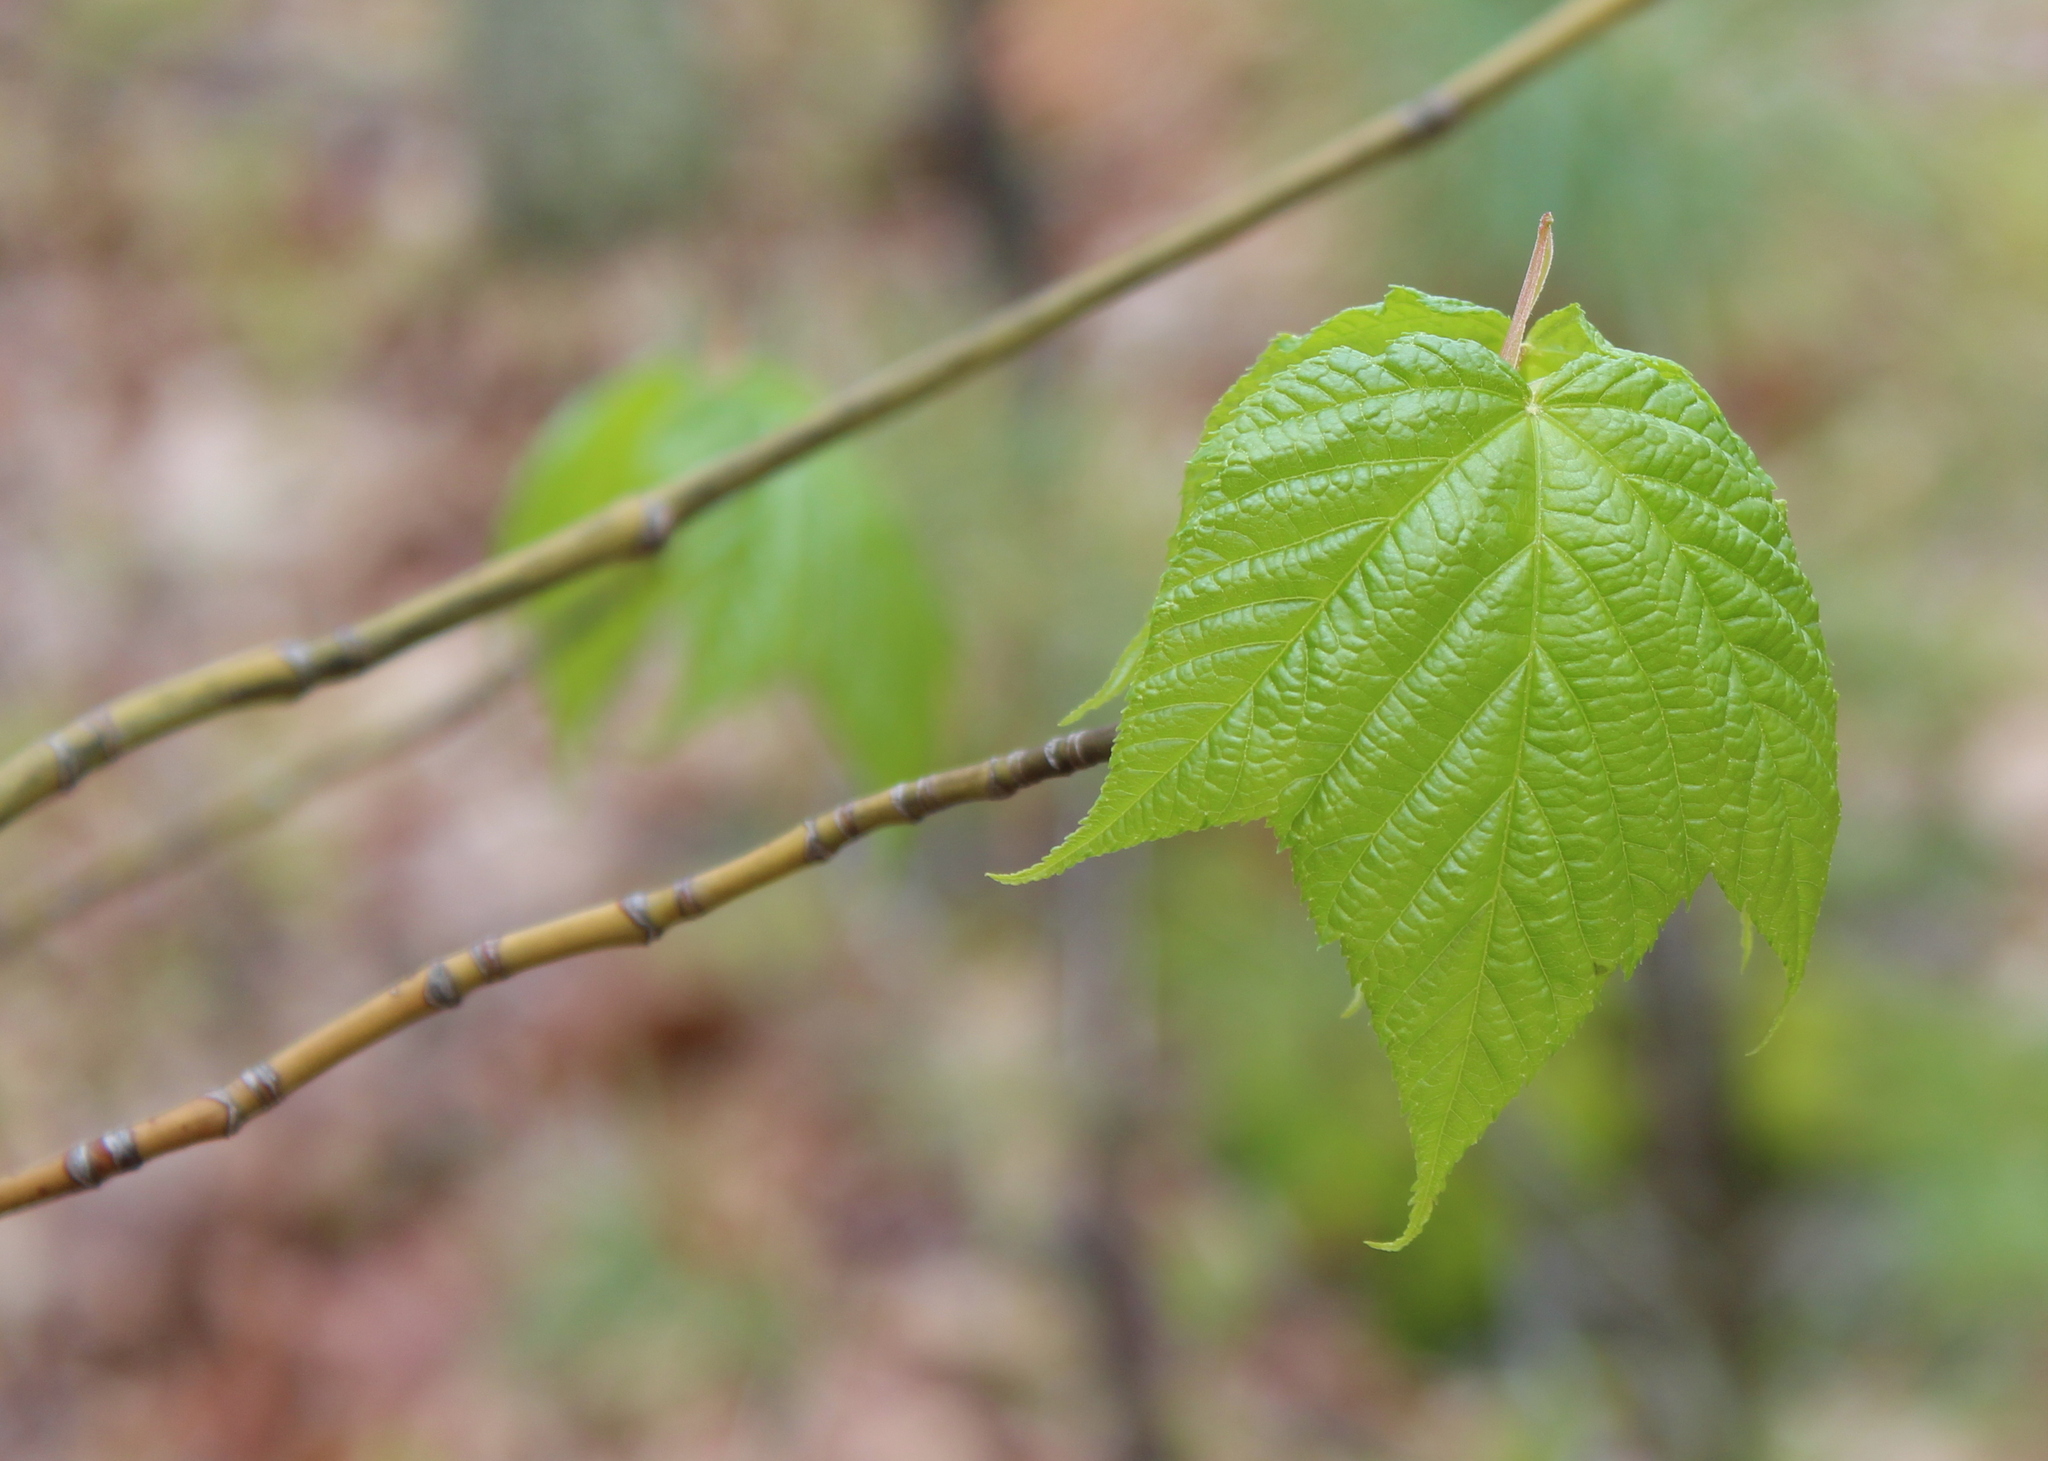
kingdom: Plantae
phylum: Tracheophyta
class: Magnoliopsida
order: Sapindales
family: Sapindaceae
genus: Acer
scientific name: Acer pensylvanicum
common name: Moosewood
